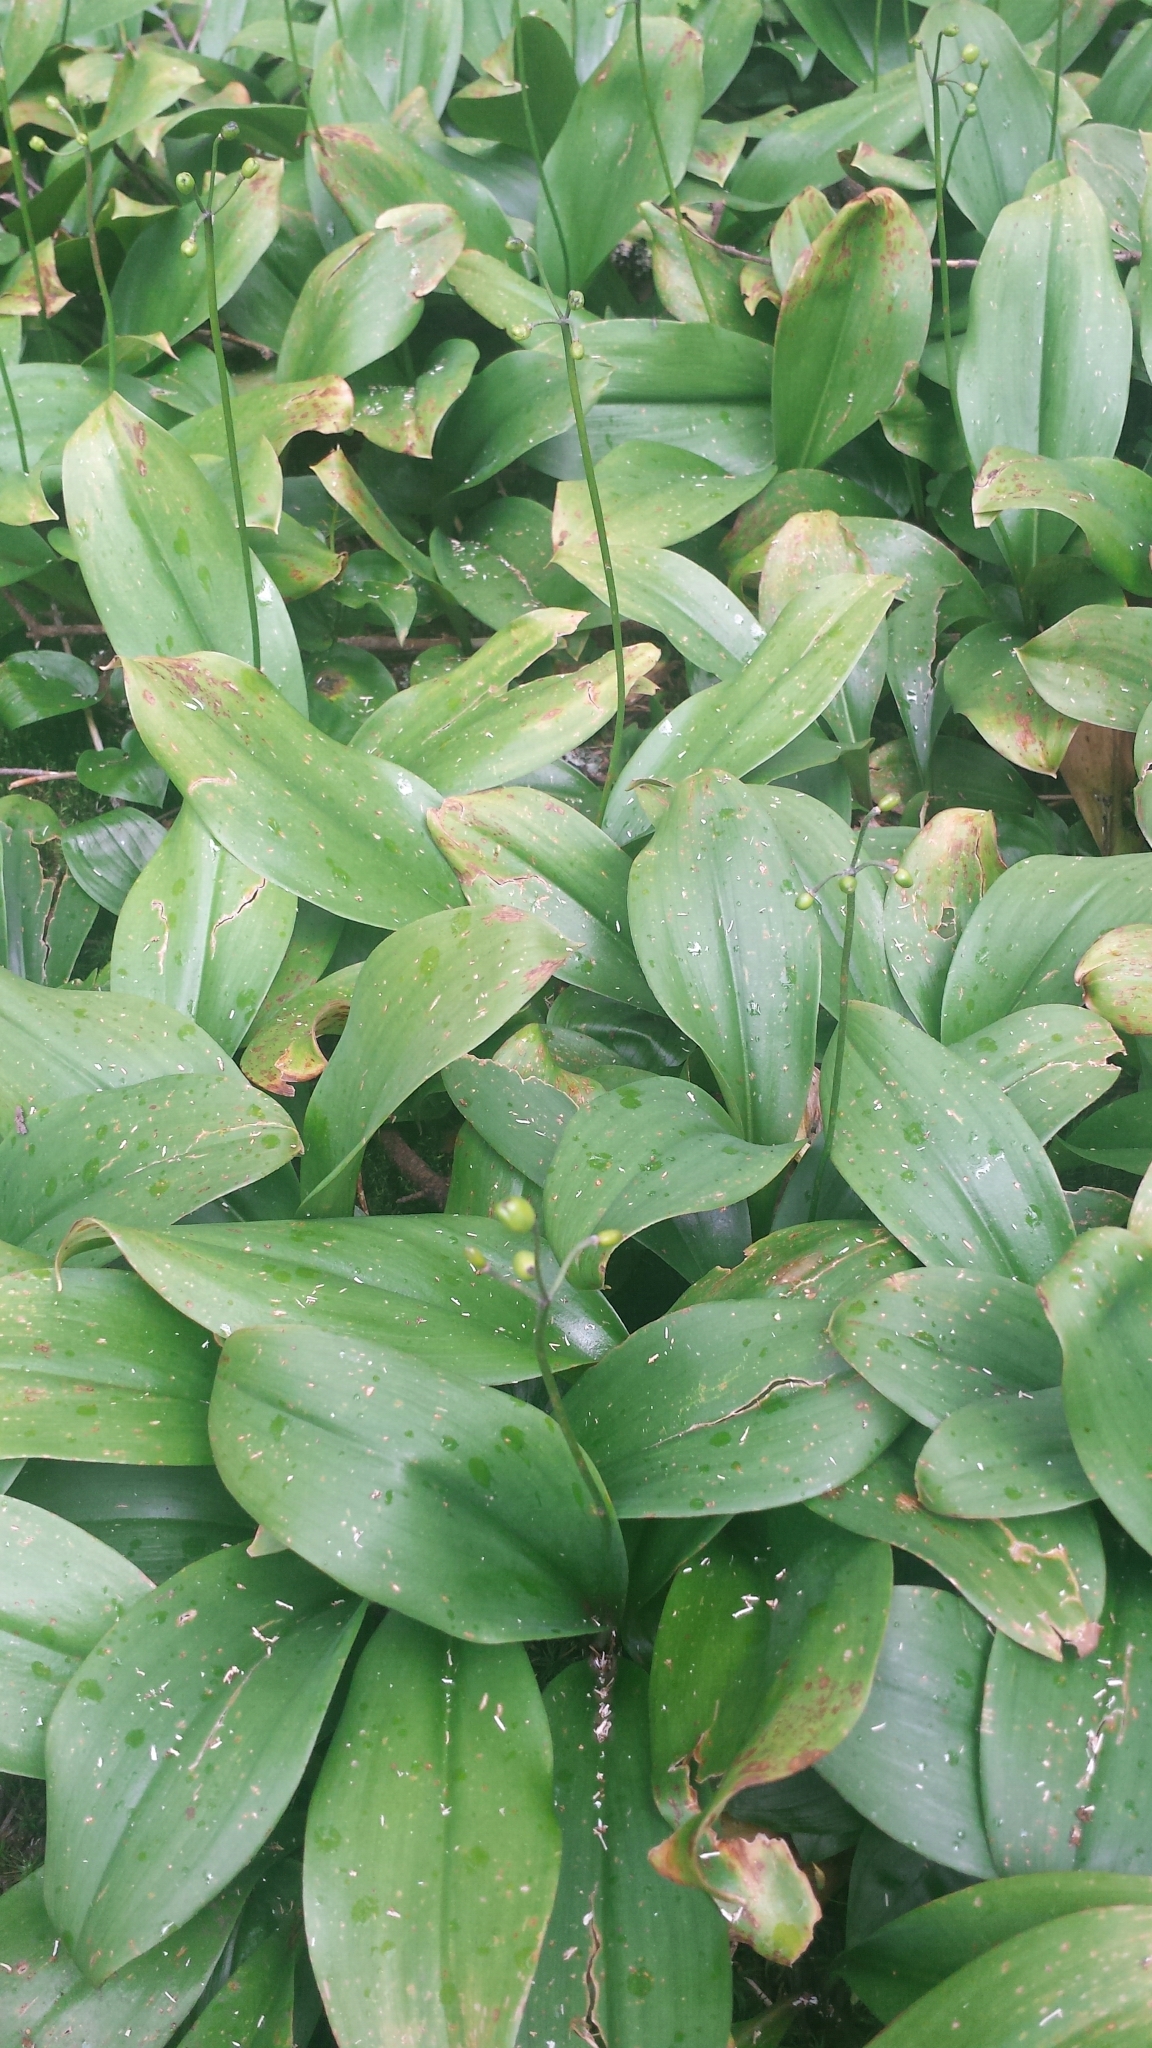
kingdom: Plantae
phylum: Tracheophyta
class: Liliopsida
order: Liliales
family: Liliaceae
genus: Clintonia
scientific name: Clintonia borealis
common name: Yellow clintonia
